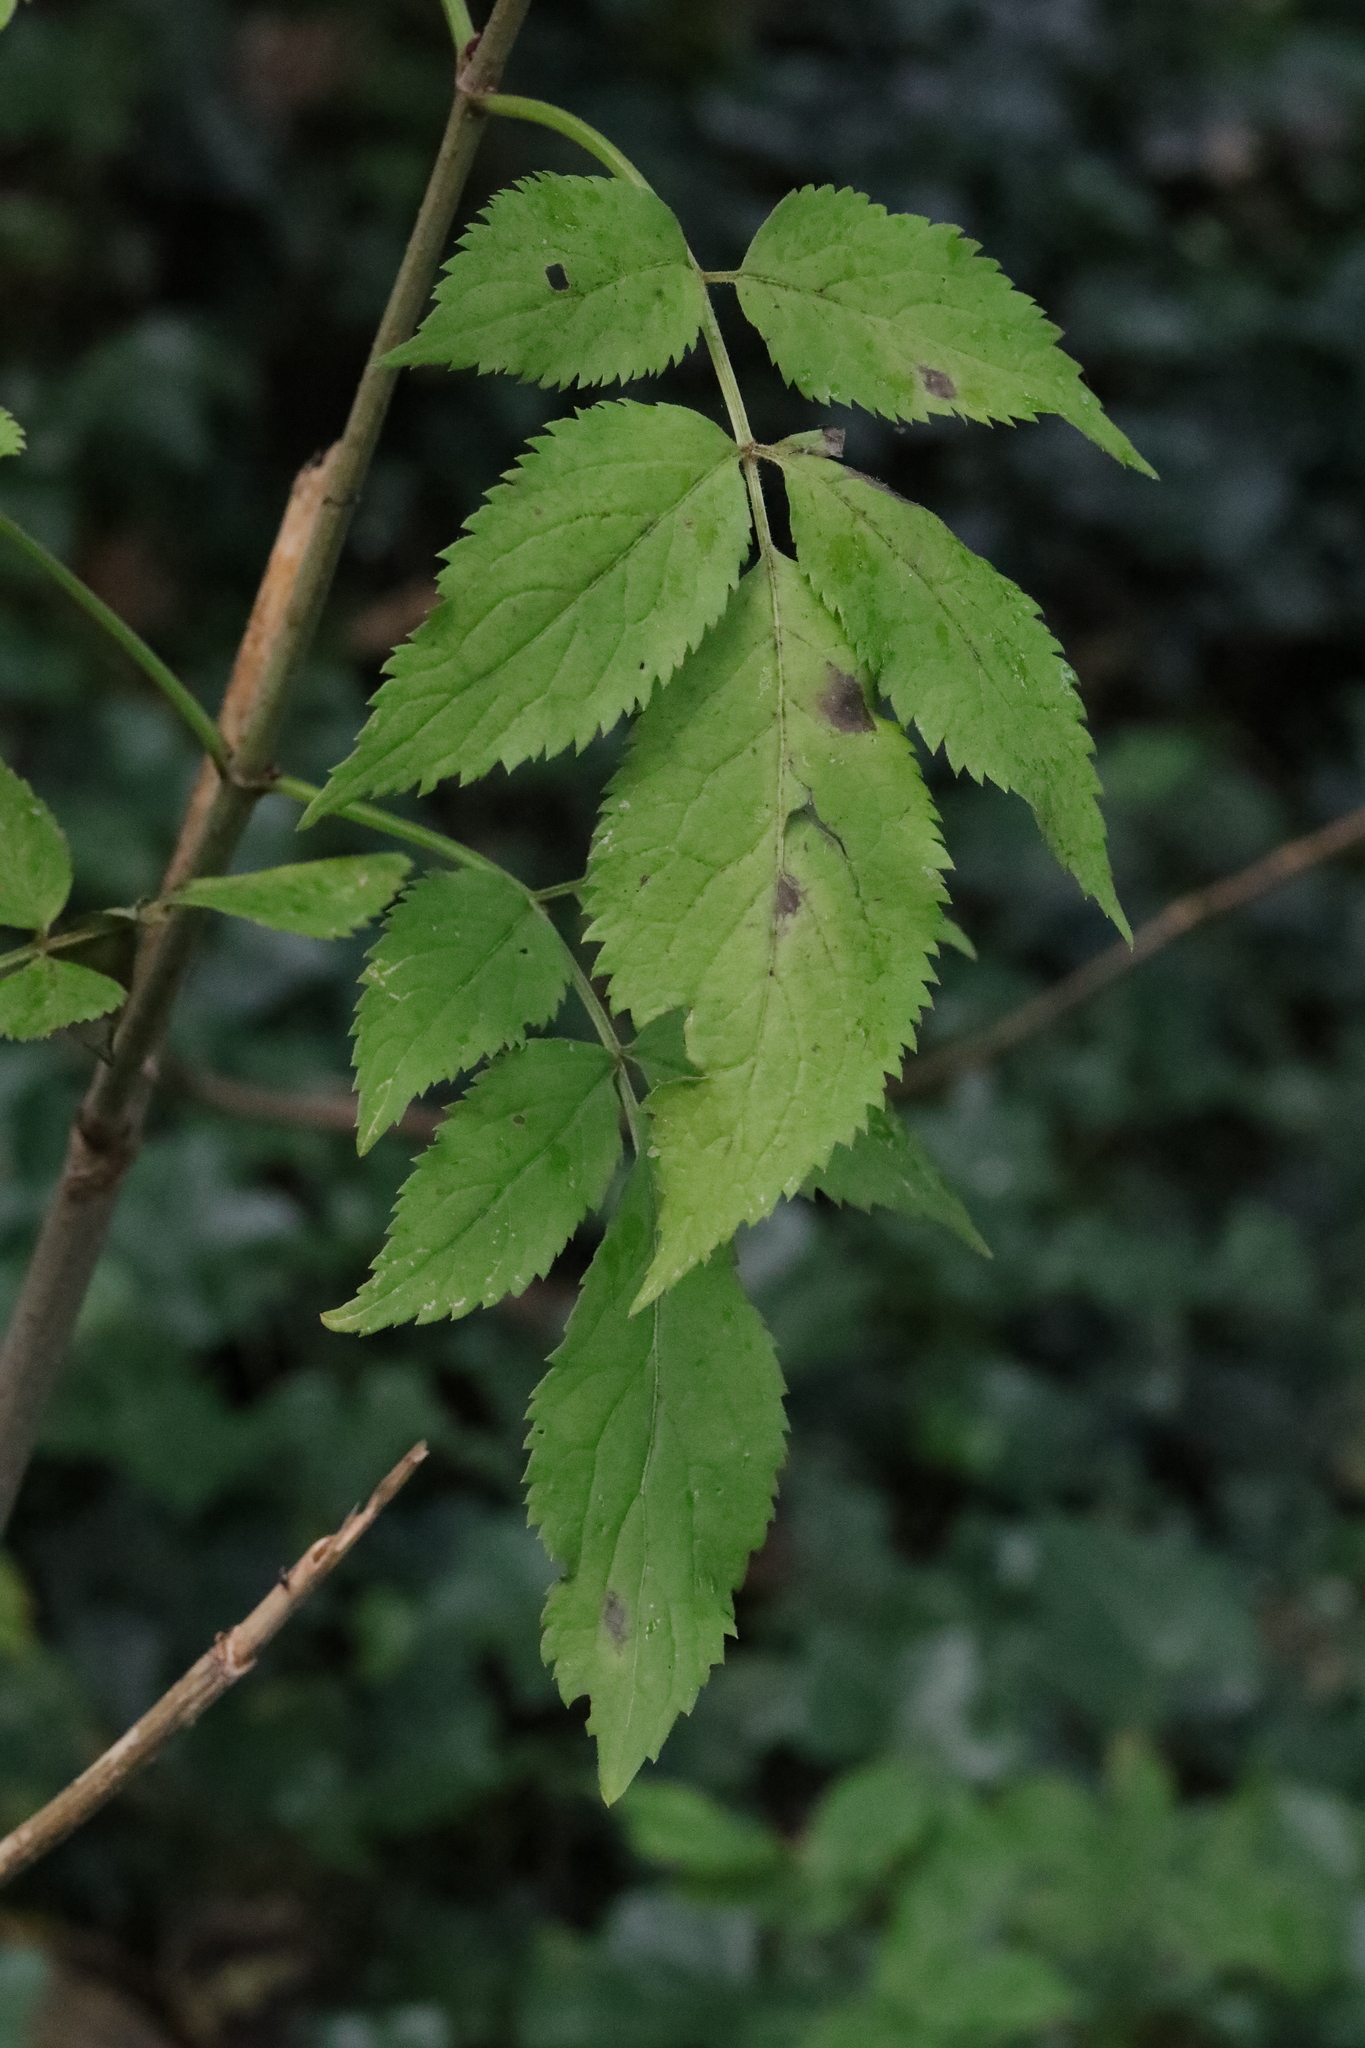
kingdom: Plantae
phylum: Tracheophyta
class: Magnoliopsida
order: Dipsacales
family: Viburnaceae
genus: Sambucus
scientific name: Sambucus nigra
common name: Elder
